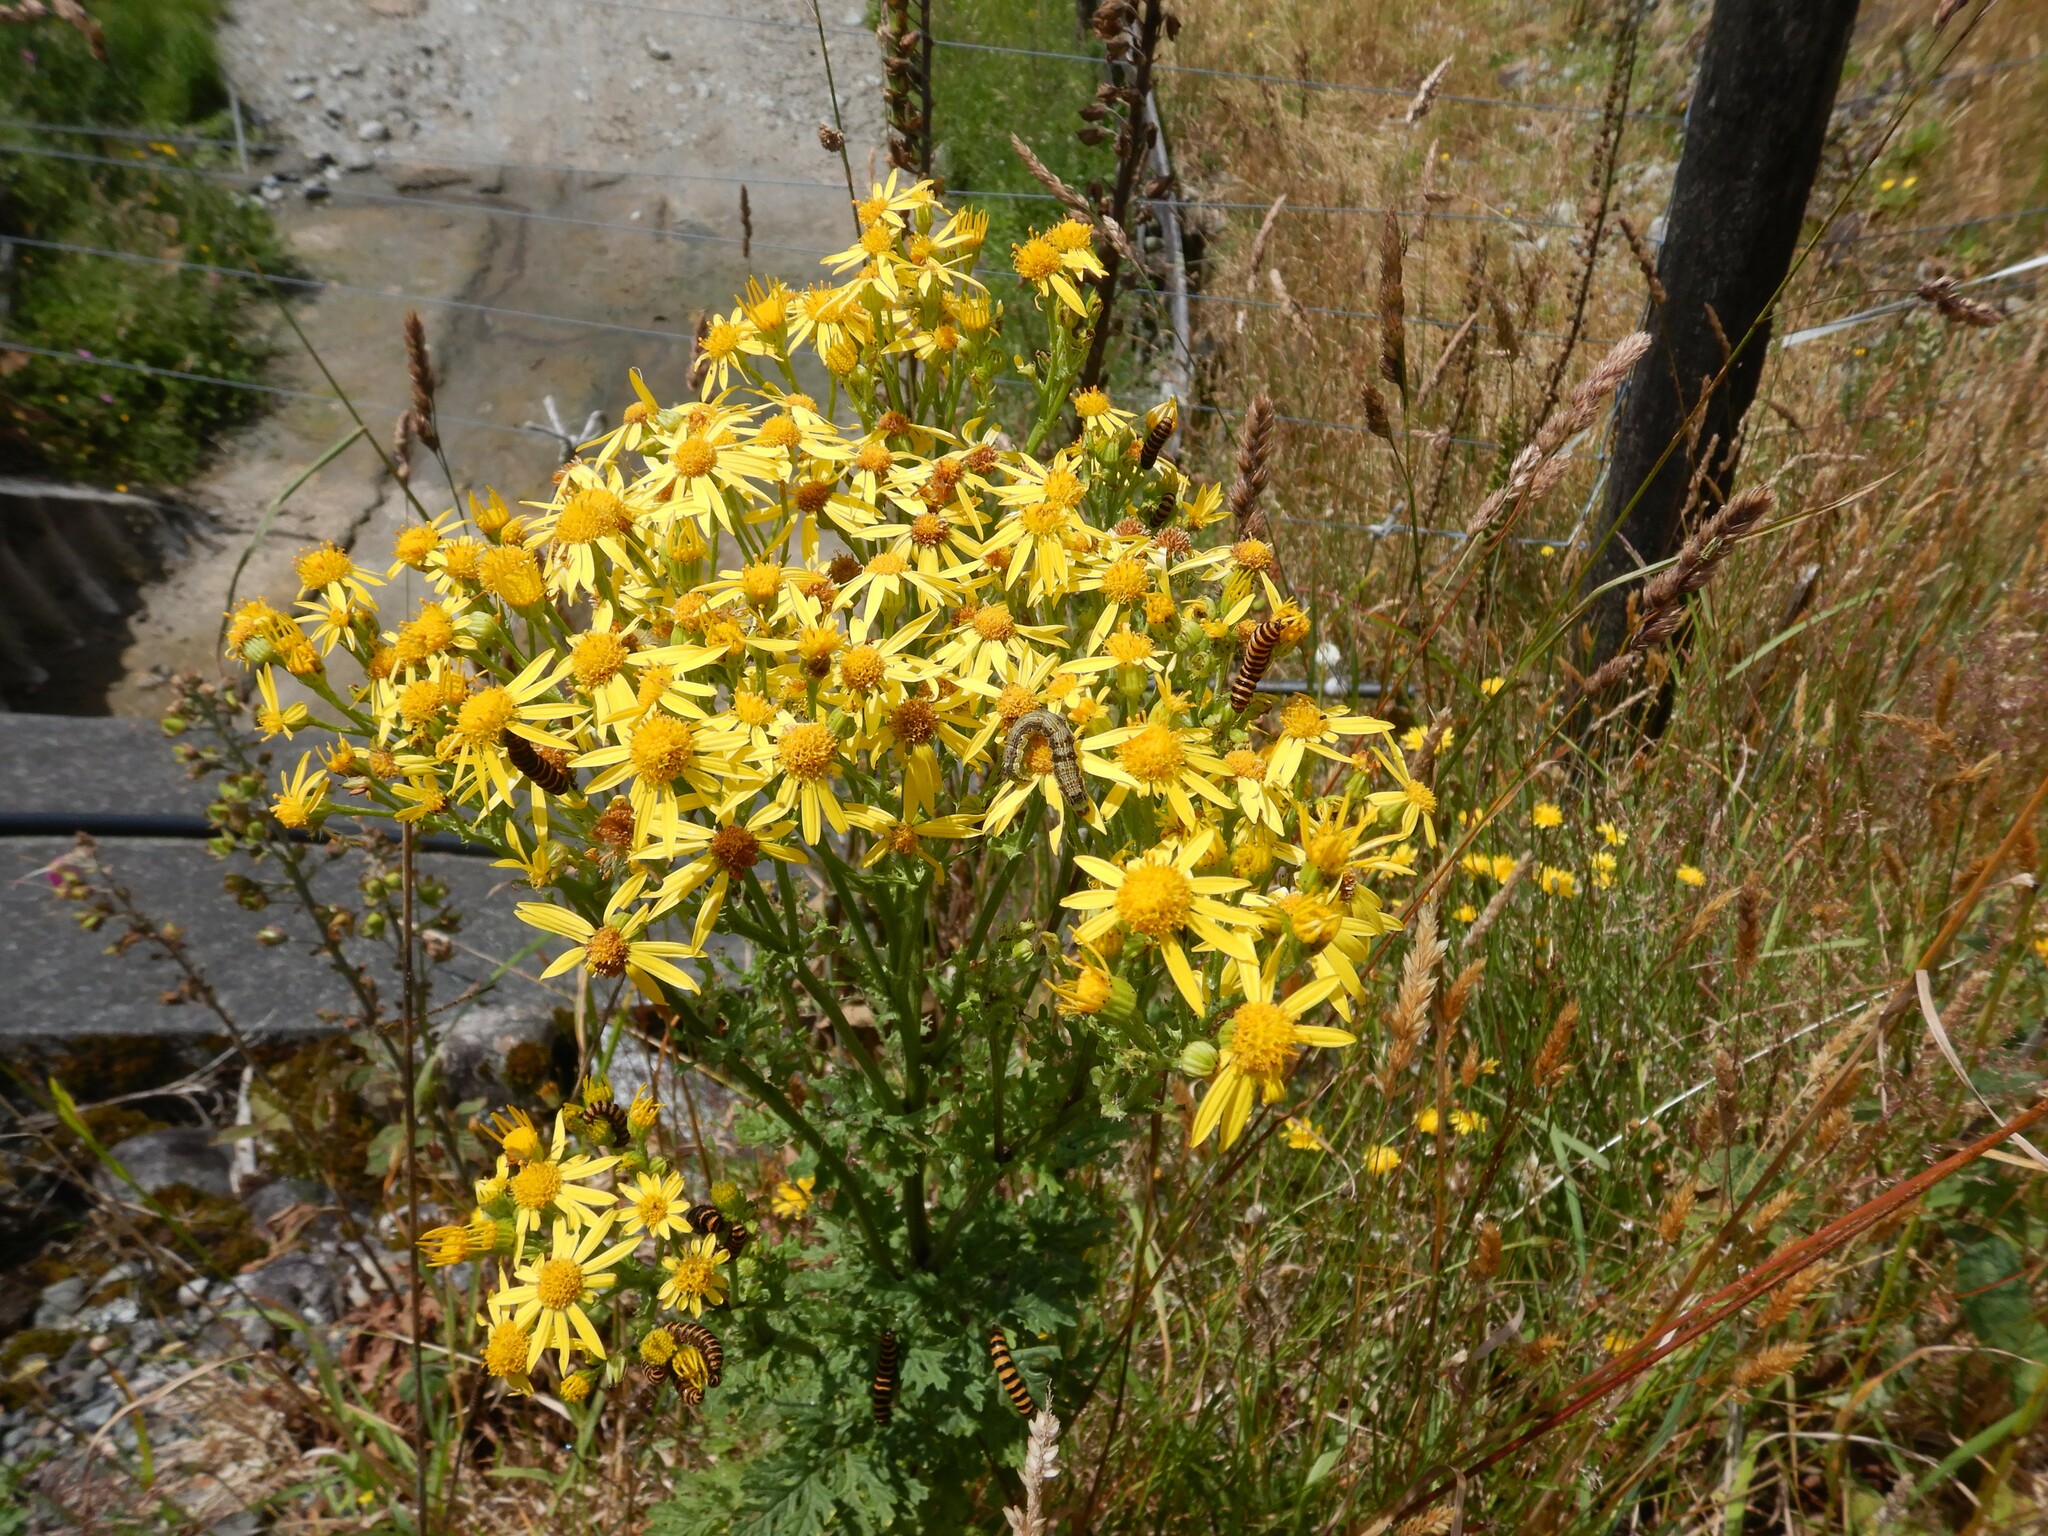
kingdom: Plantae
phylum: Tracheophyta
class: Magnoliopsida
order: Asterales
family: Asteraceae
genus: Jacobaea
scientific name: Jacobaea vulgaris
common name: Stinking willie
